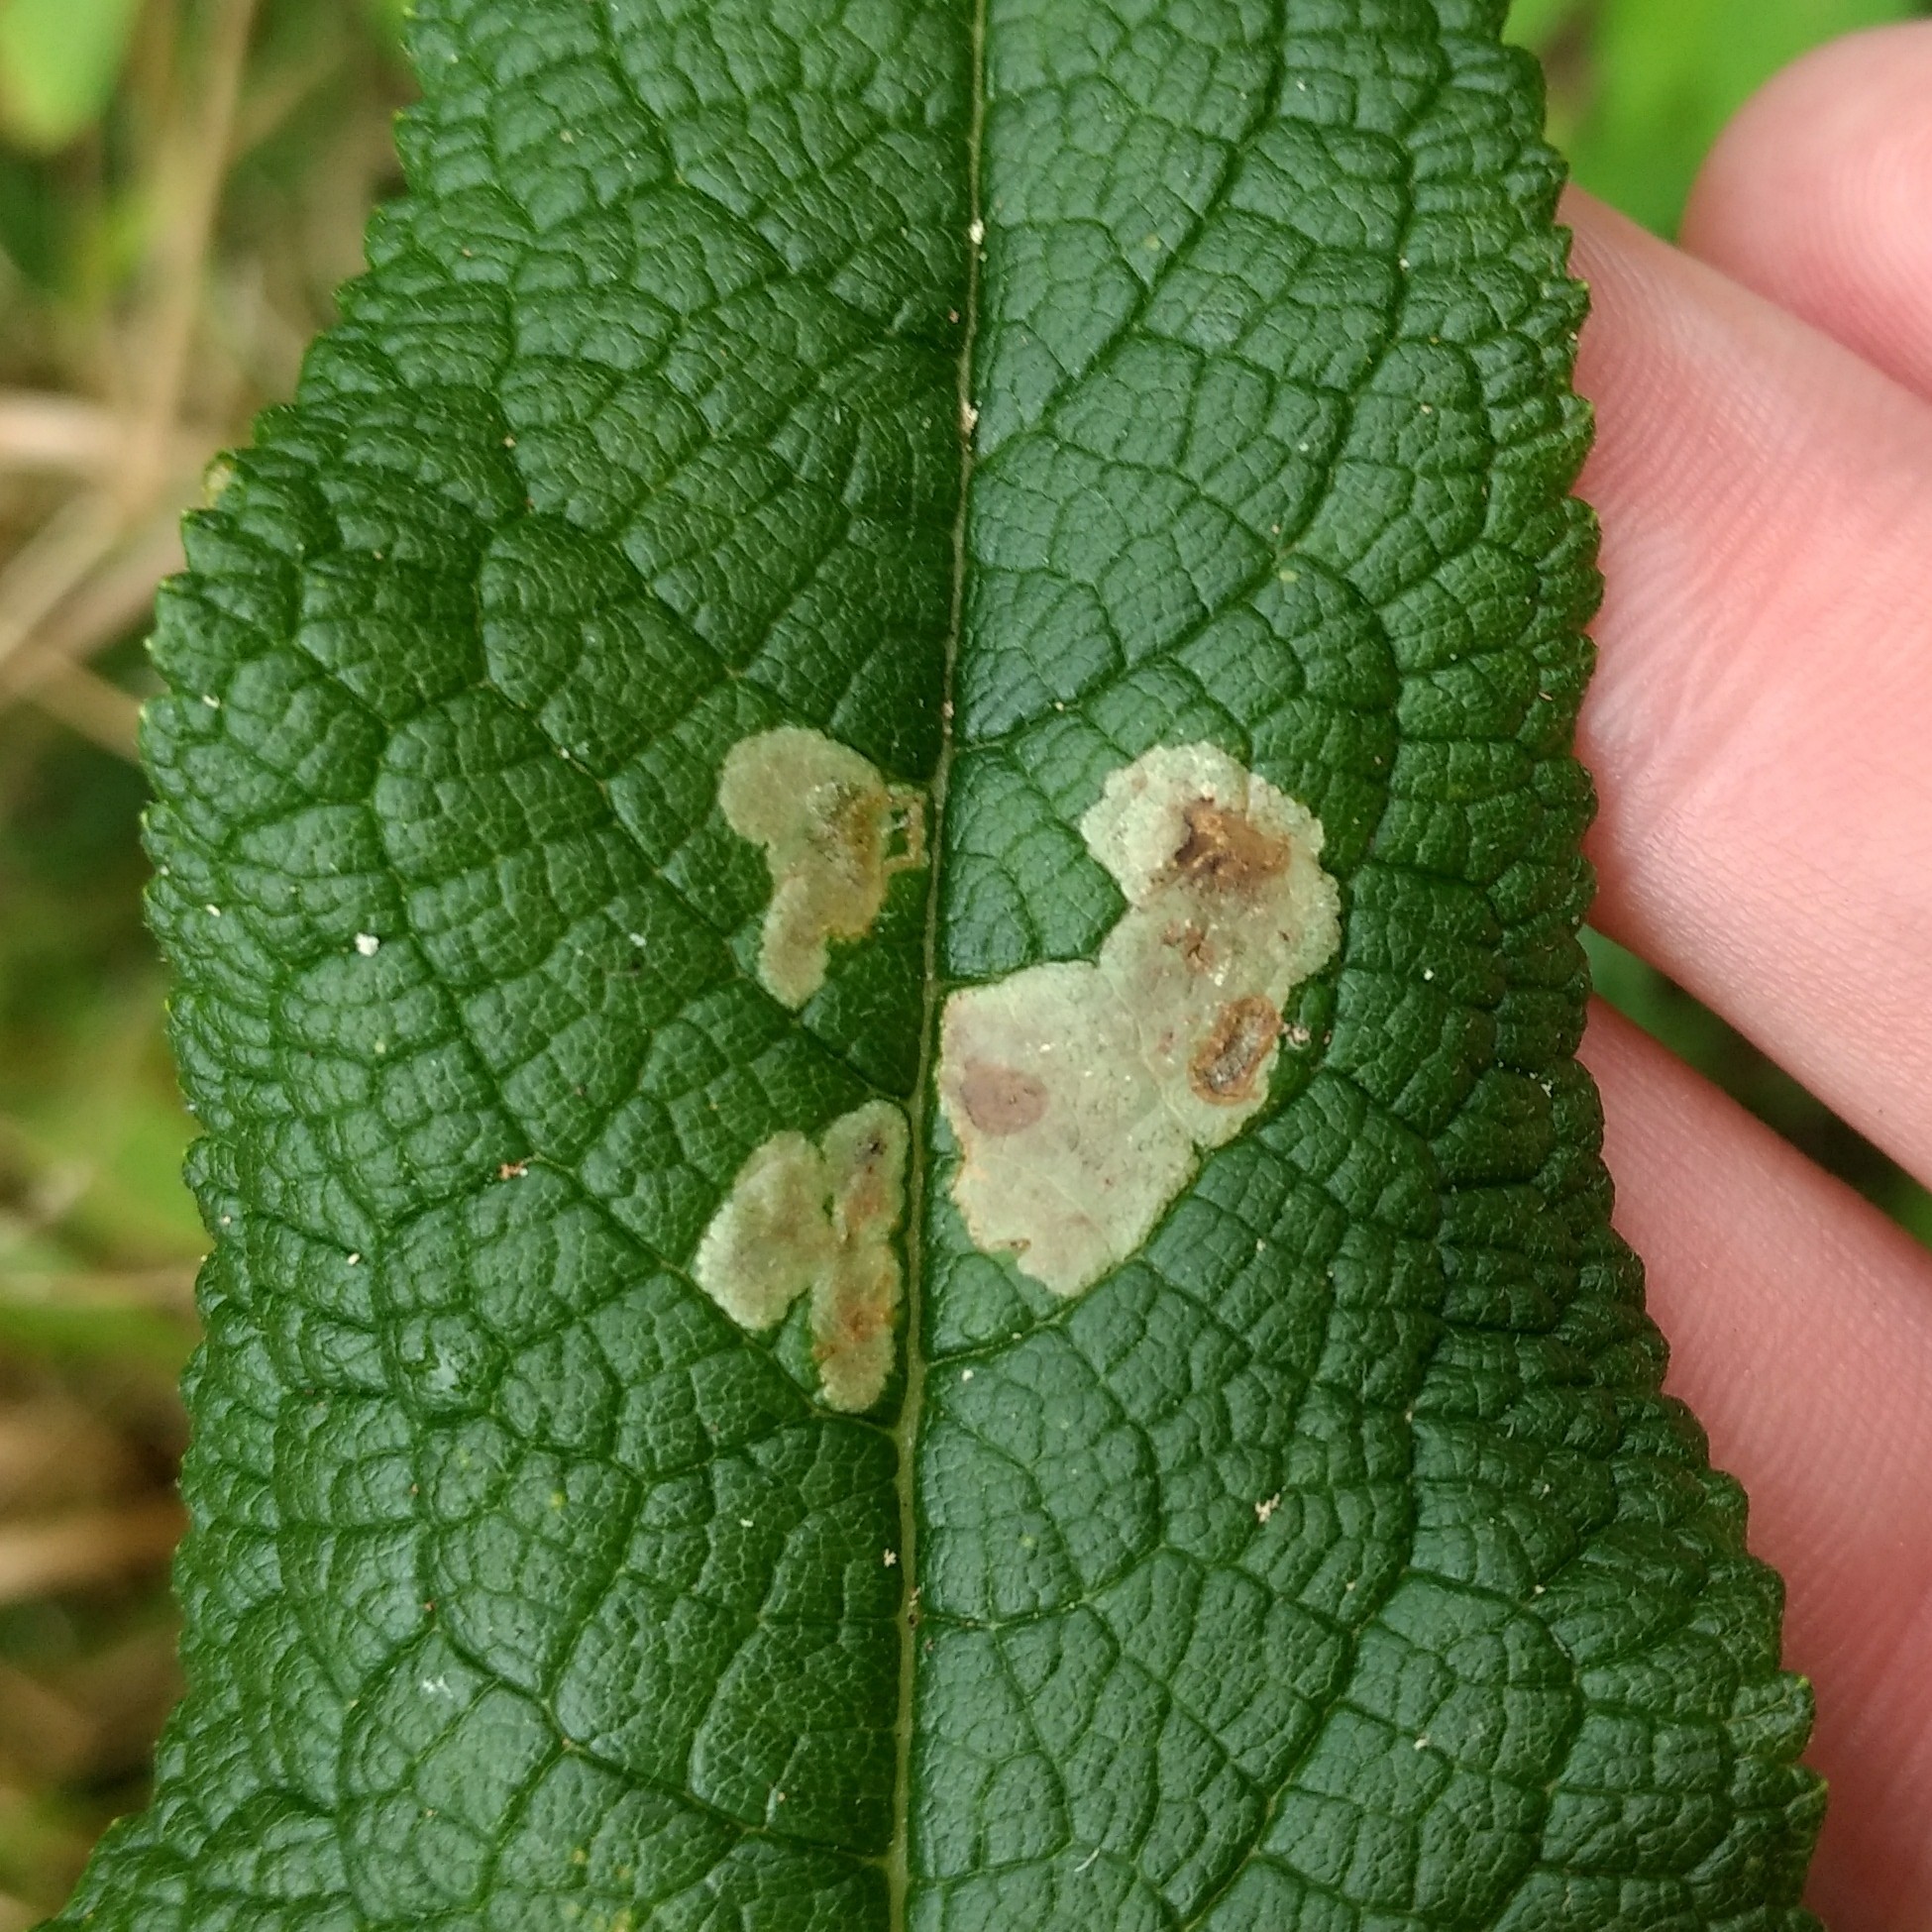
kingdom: Animalia
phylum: Arthropoda
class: Insecta
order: Diptera
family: Agromyzidae
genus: Calycomyza
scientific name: Calycomyza flavinotum
